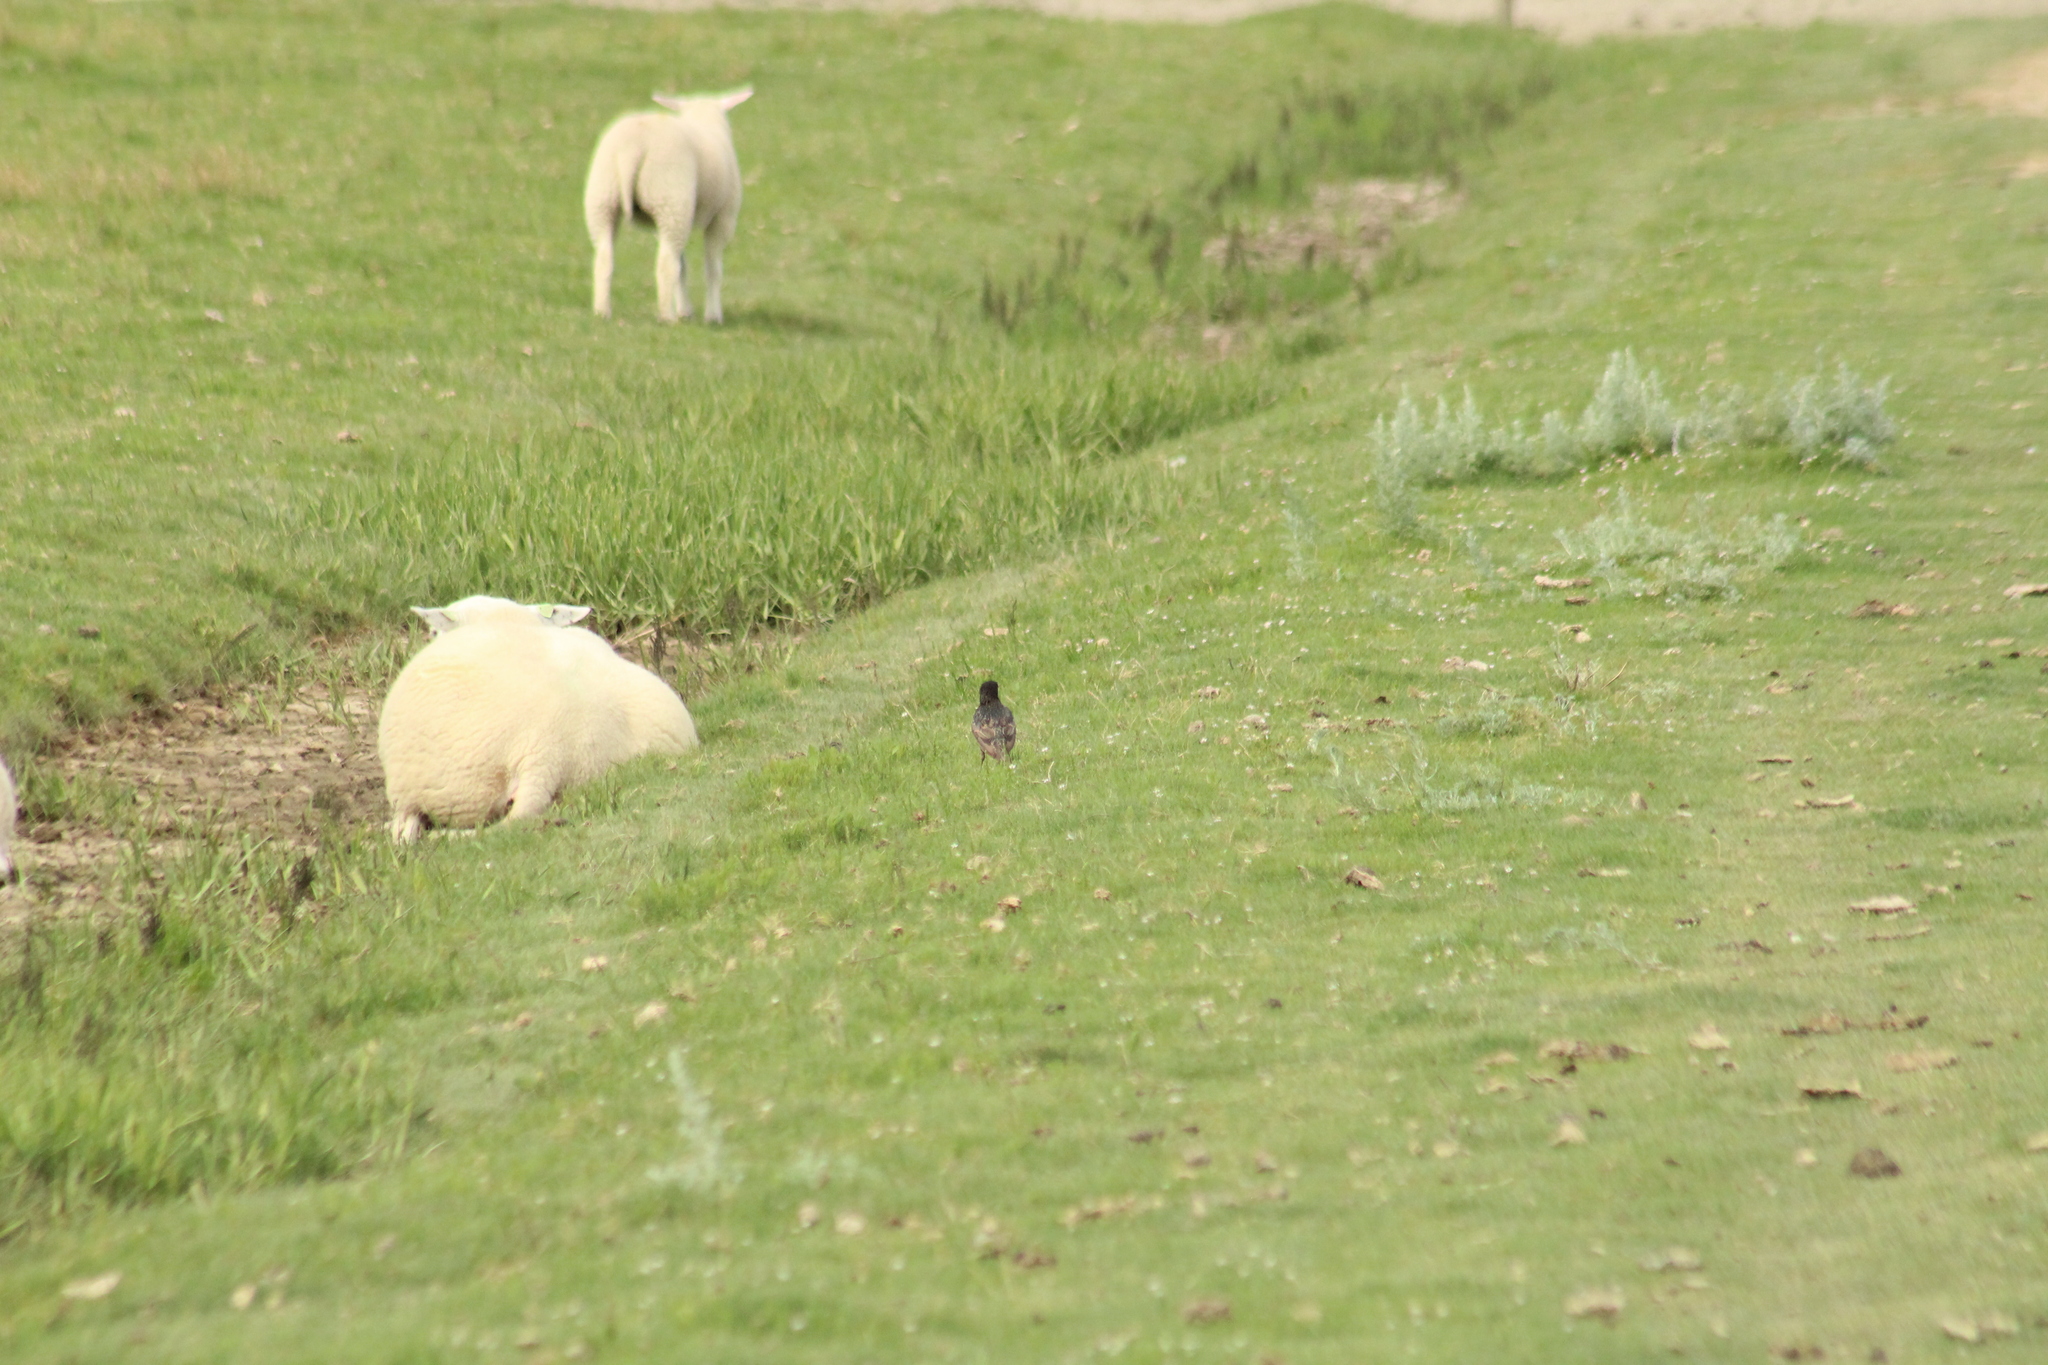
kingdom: Animalia
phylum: Chordata
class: Aves
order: Passeriformes
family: Sturnidae
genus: Sturnus
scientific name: Sturnus vulgaris
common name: Common starling
